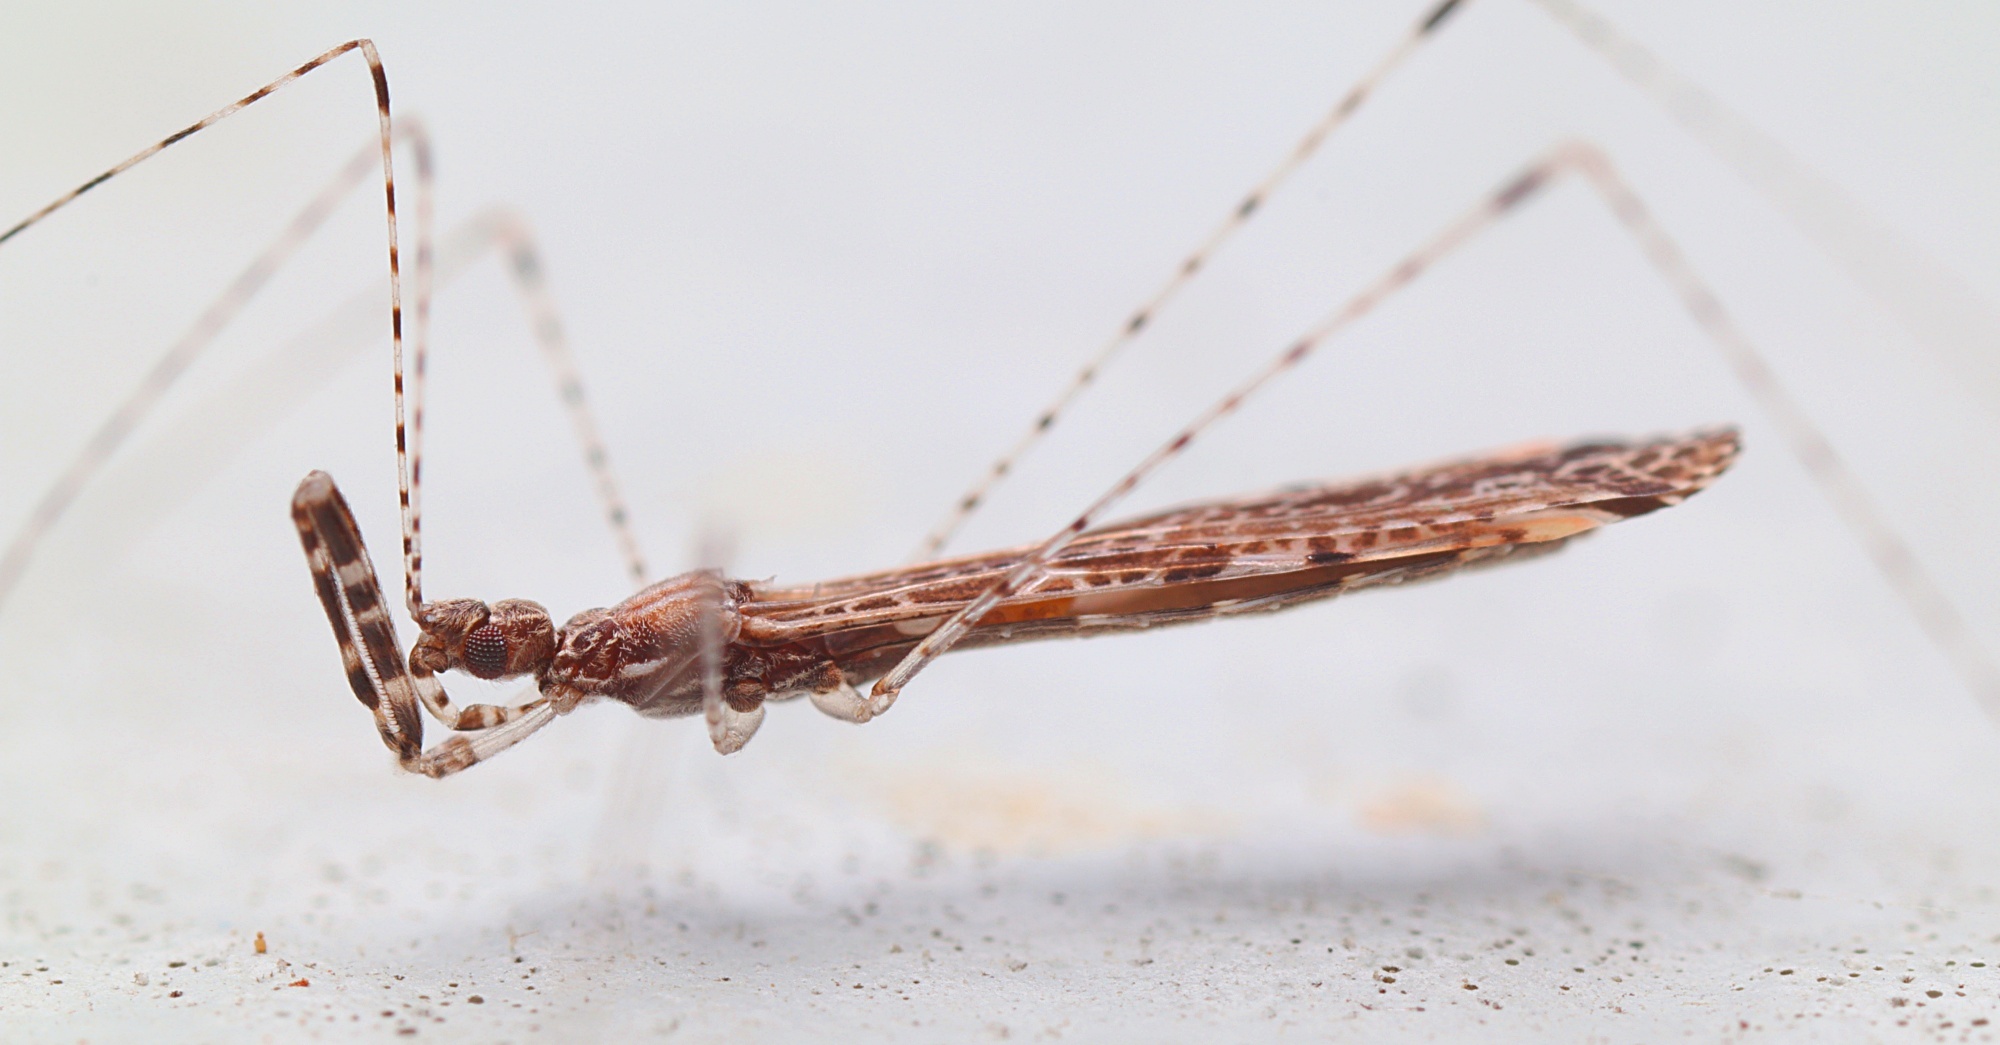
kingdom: Animalia
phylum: Arthropoda
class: Insecta
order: Hemiptera
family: Reduviidae
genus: Empicoris
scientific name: Empicoris rubromaculatus
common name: Thread-legged bug
